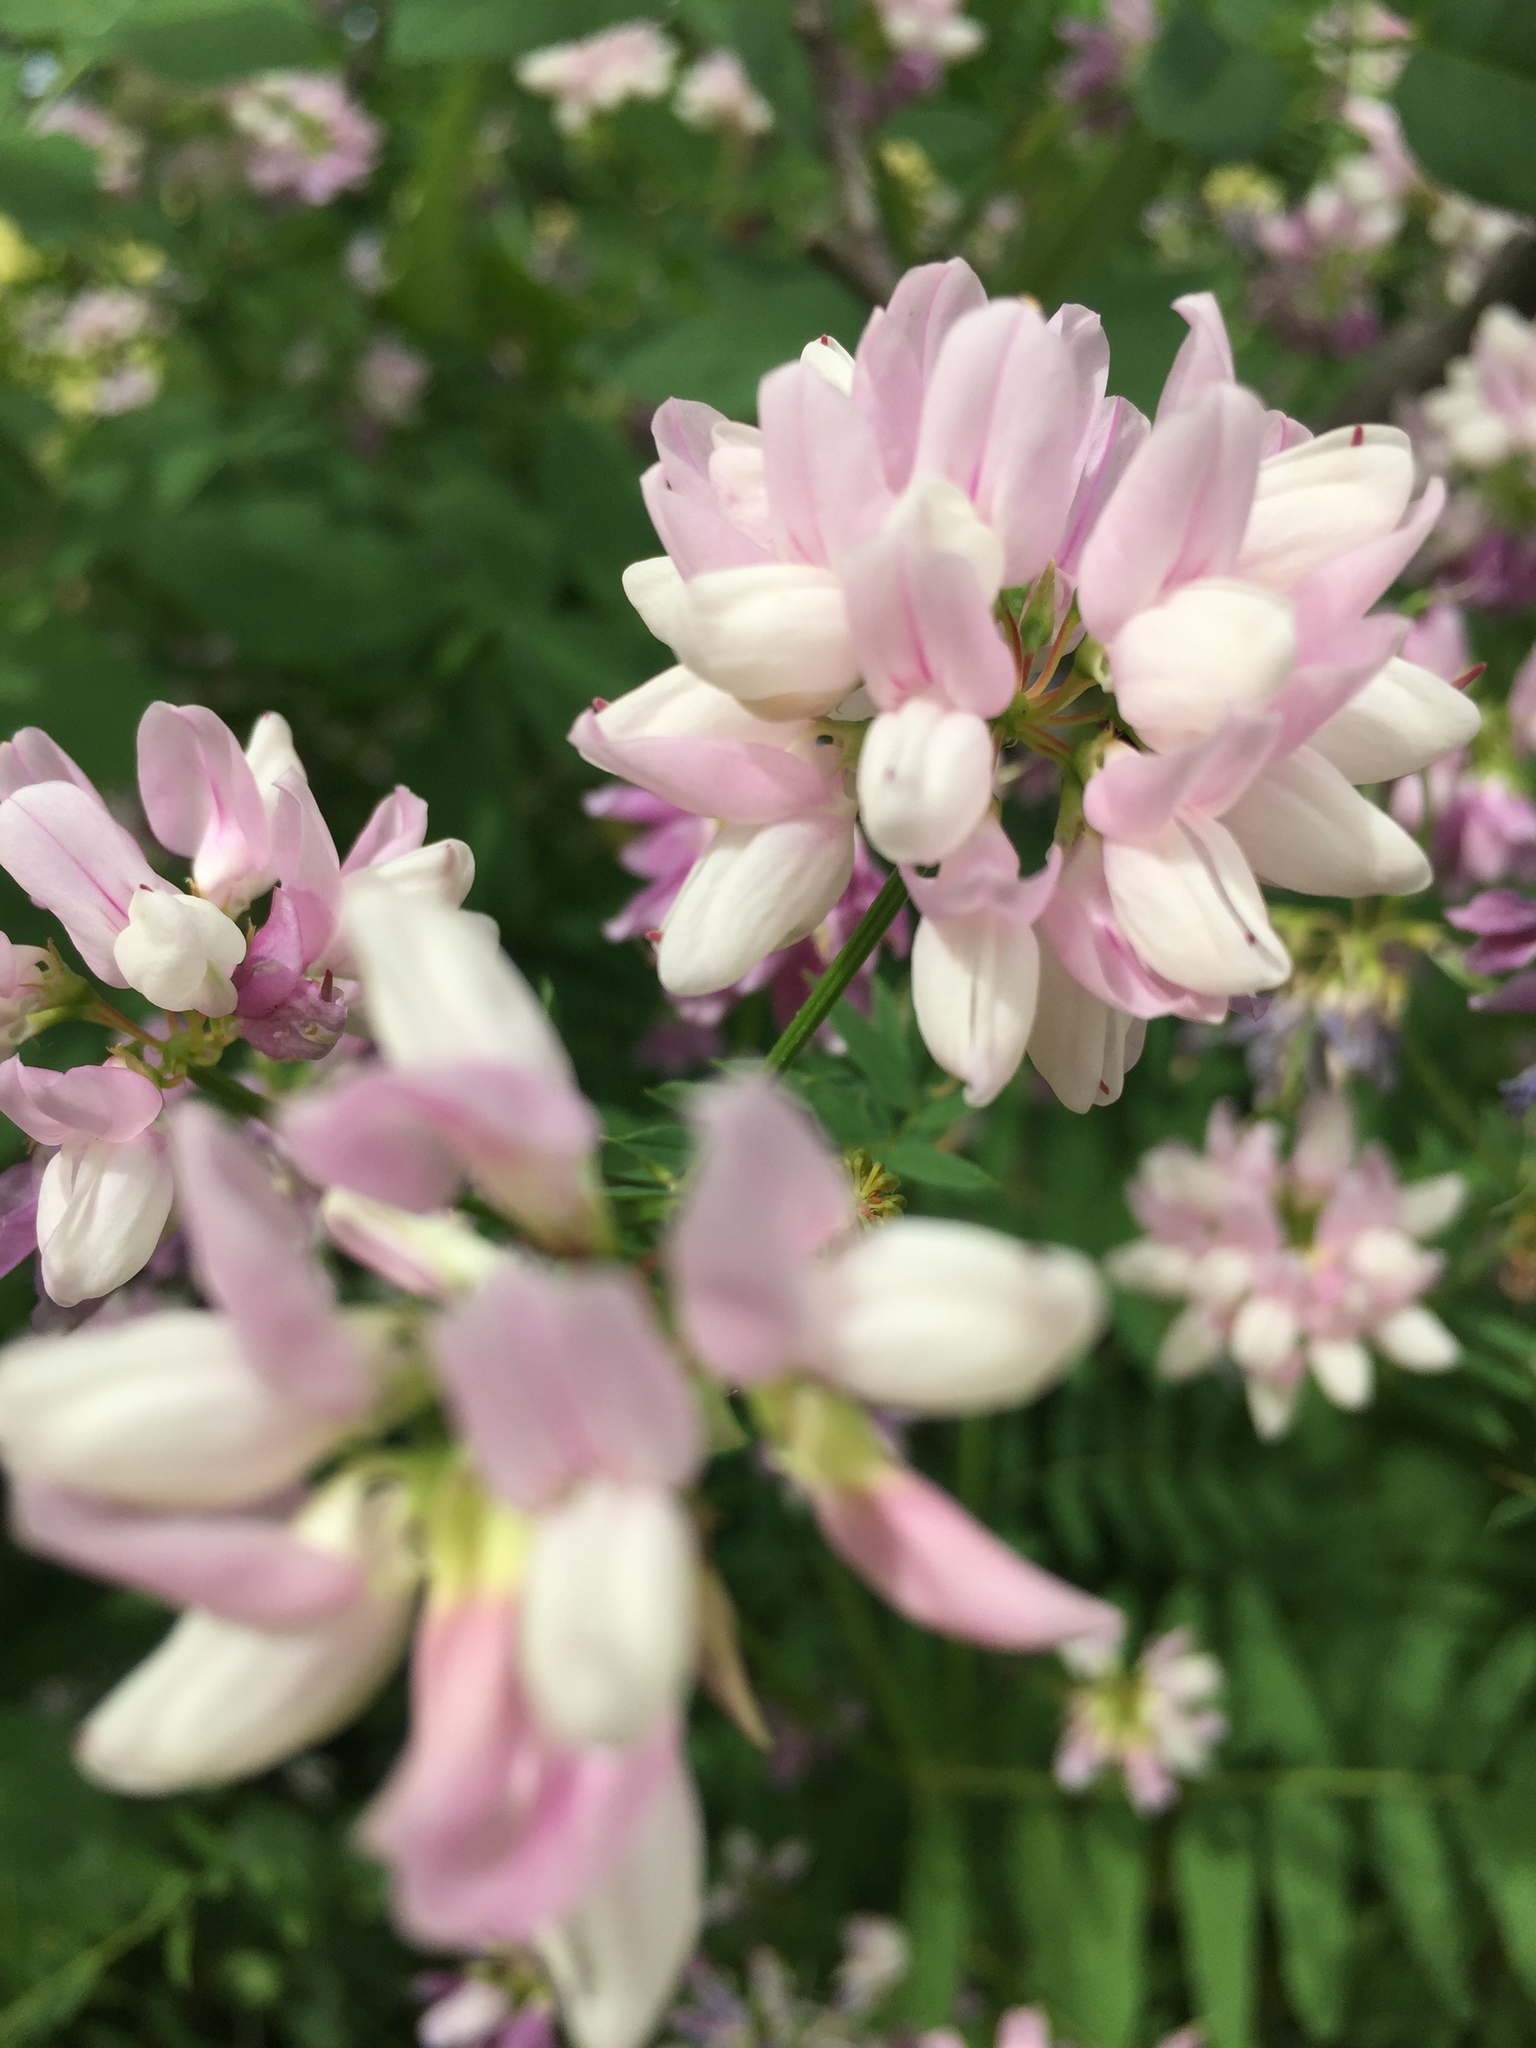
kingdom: Plantae
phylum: Tracheophyta
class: Magnoliopsida
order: Fabales
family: Fabaceae
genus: Coronilla
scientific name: Coronilla varia
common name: Crownvetch
